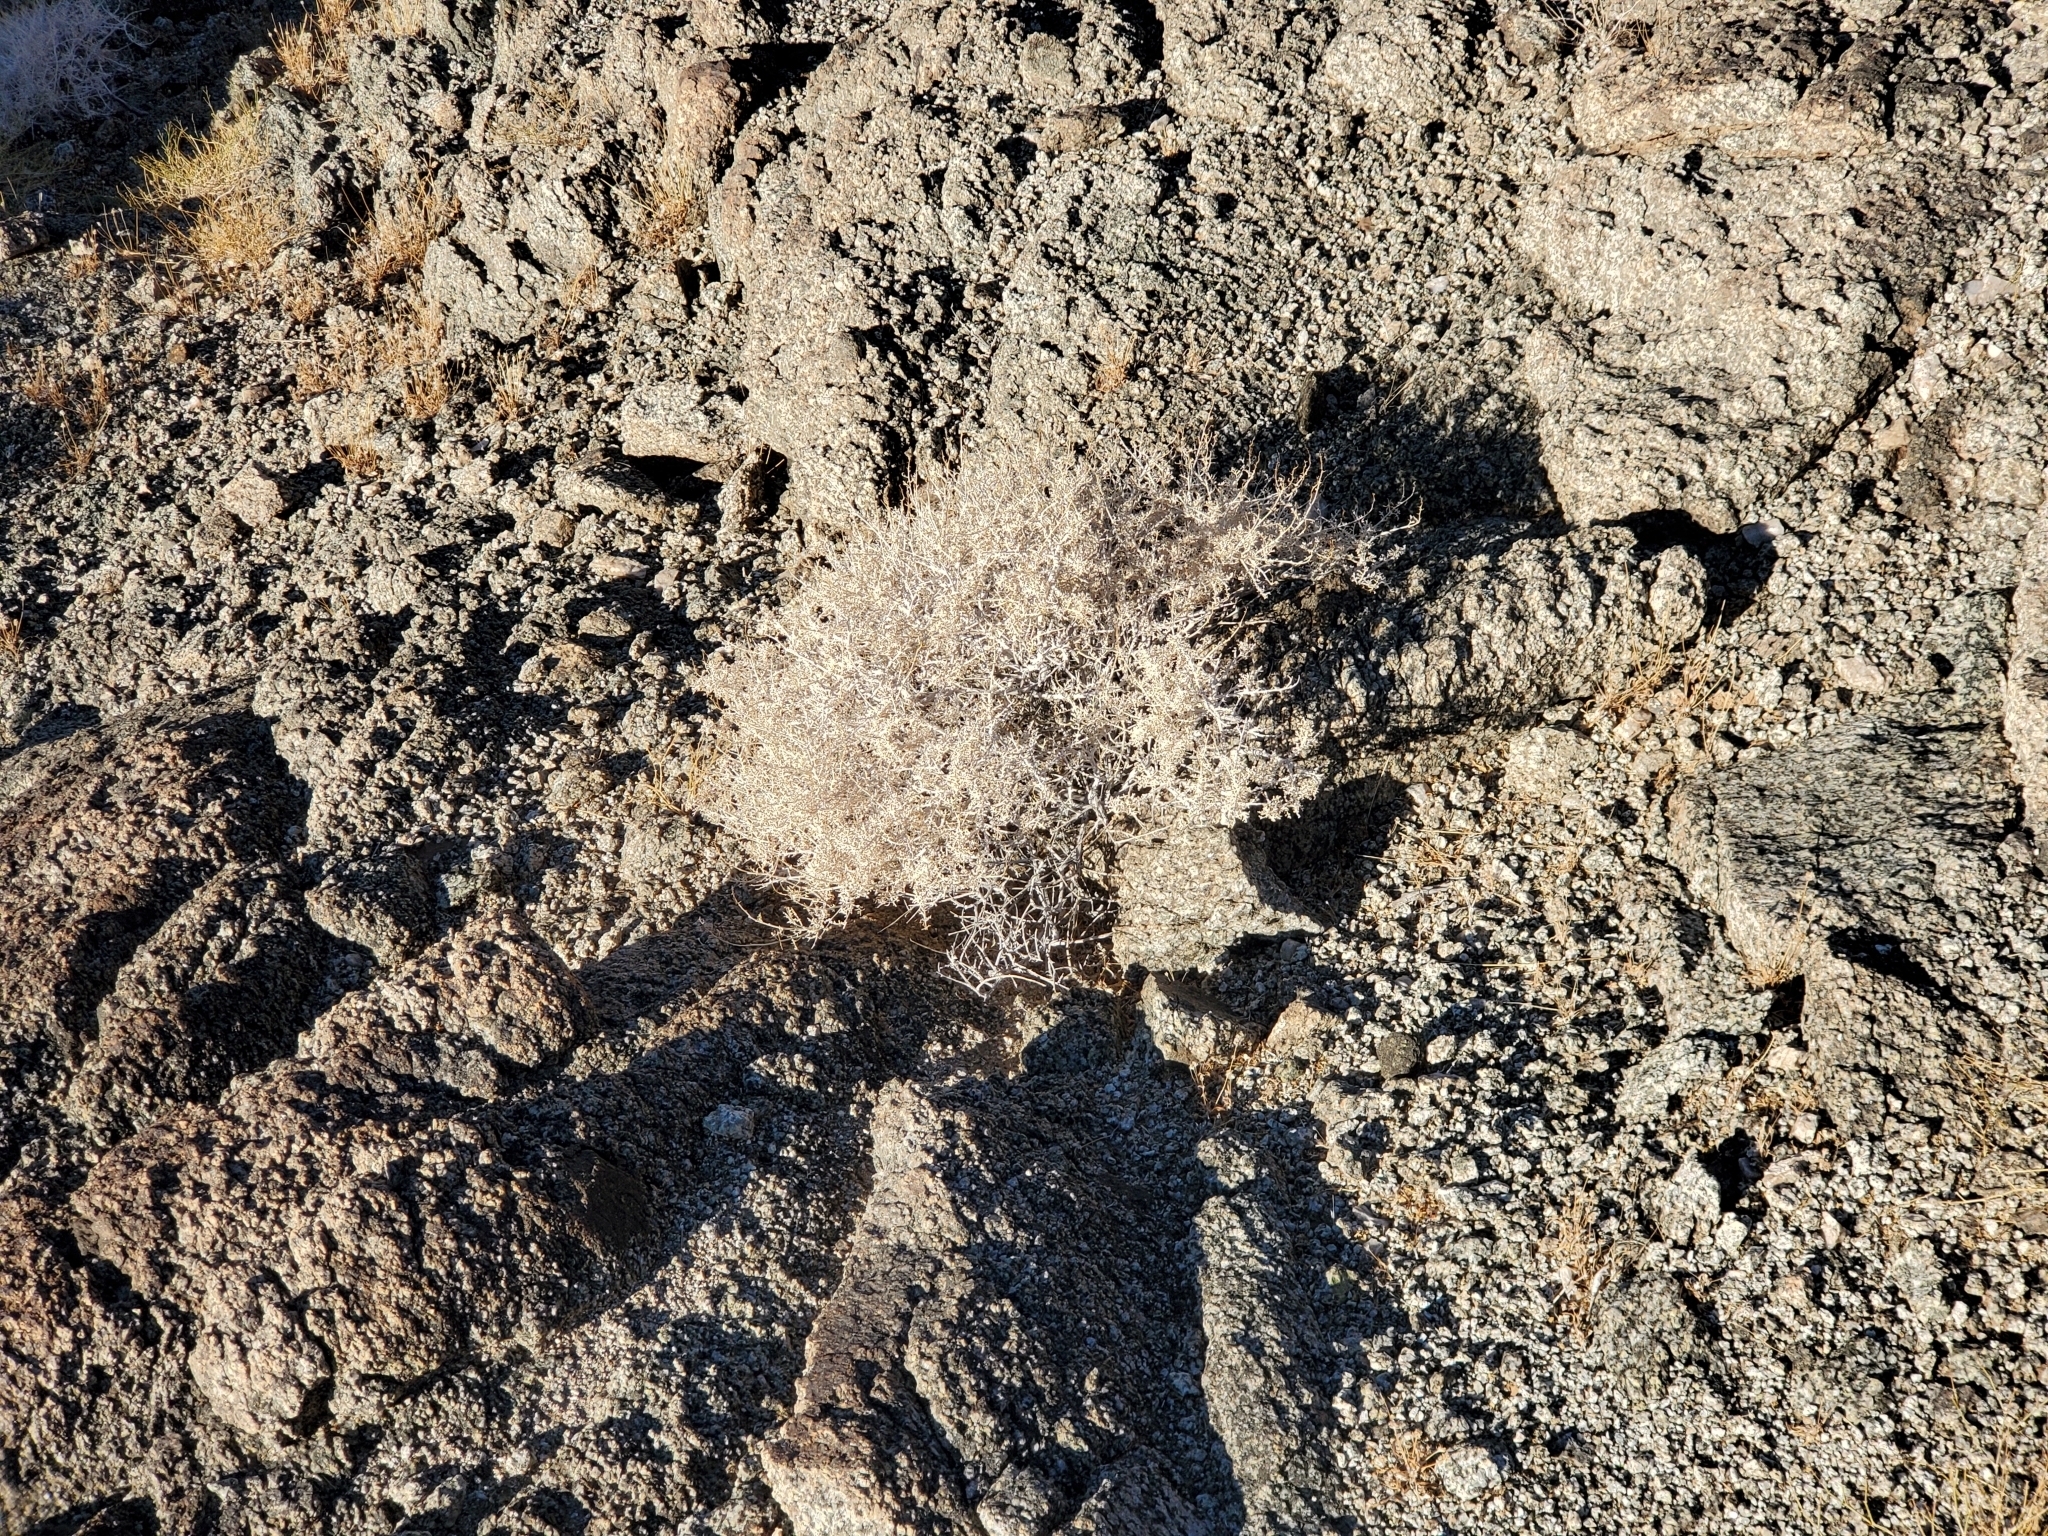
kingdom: Plantae
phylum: Tracheophyta
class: Magnoliopsida
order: Asterales
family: Asteraceae
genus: Ambrosia
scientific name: Ambrosia dumosa
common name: Bur-sage
